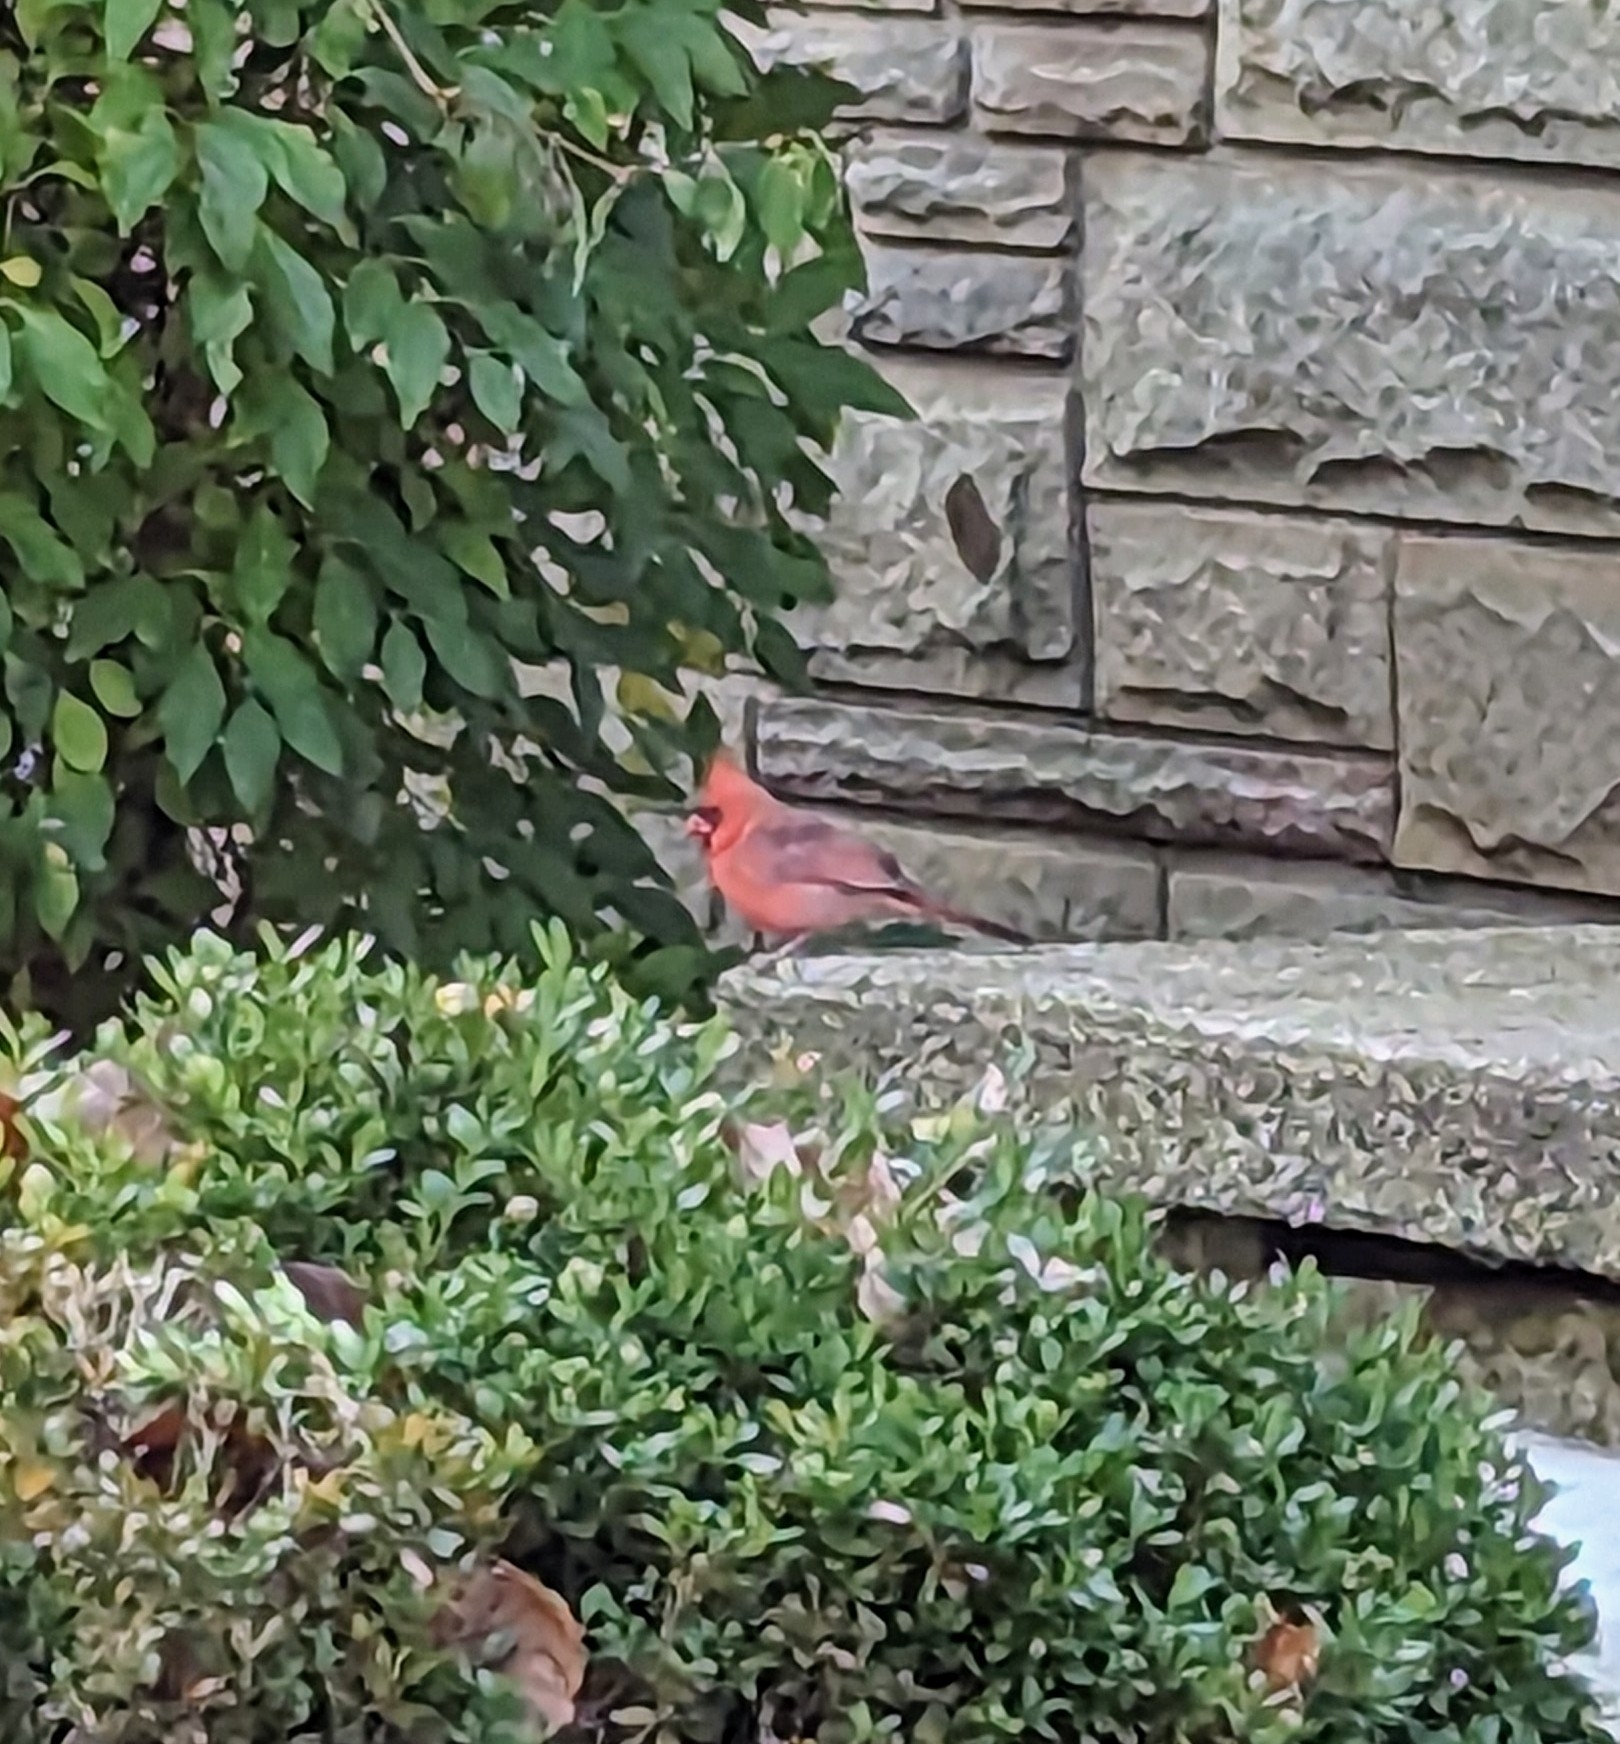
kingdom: Animalia
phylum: Chordata
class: Aves
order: Passeriformes
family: Cardinalidae
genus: Cardinalis
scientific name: Cardinalis cardinalis
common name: Northern cardinal
